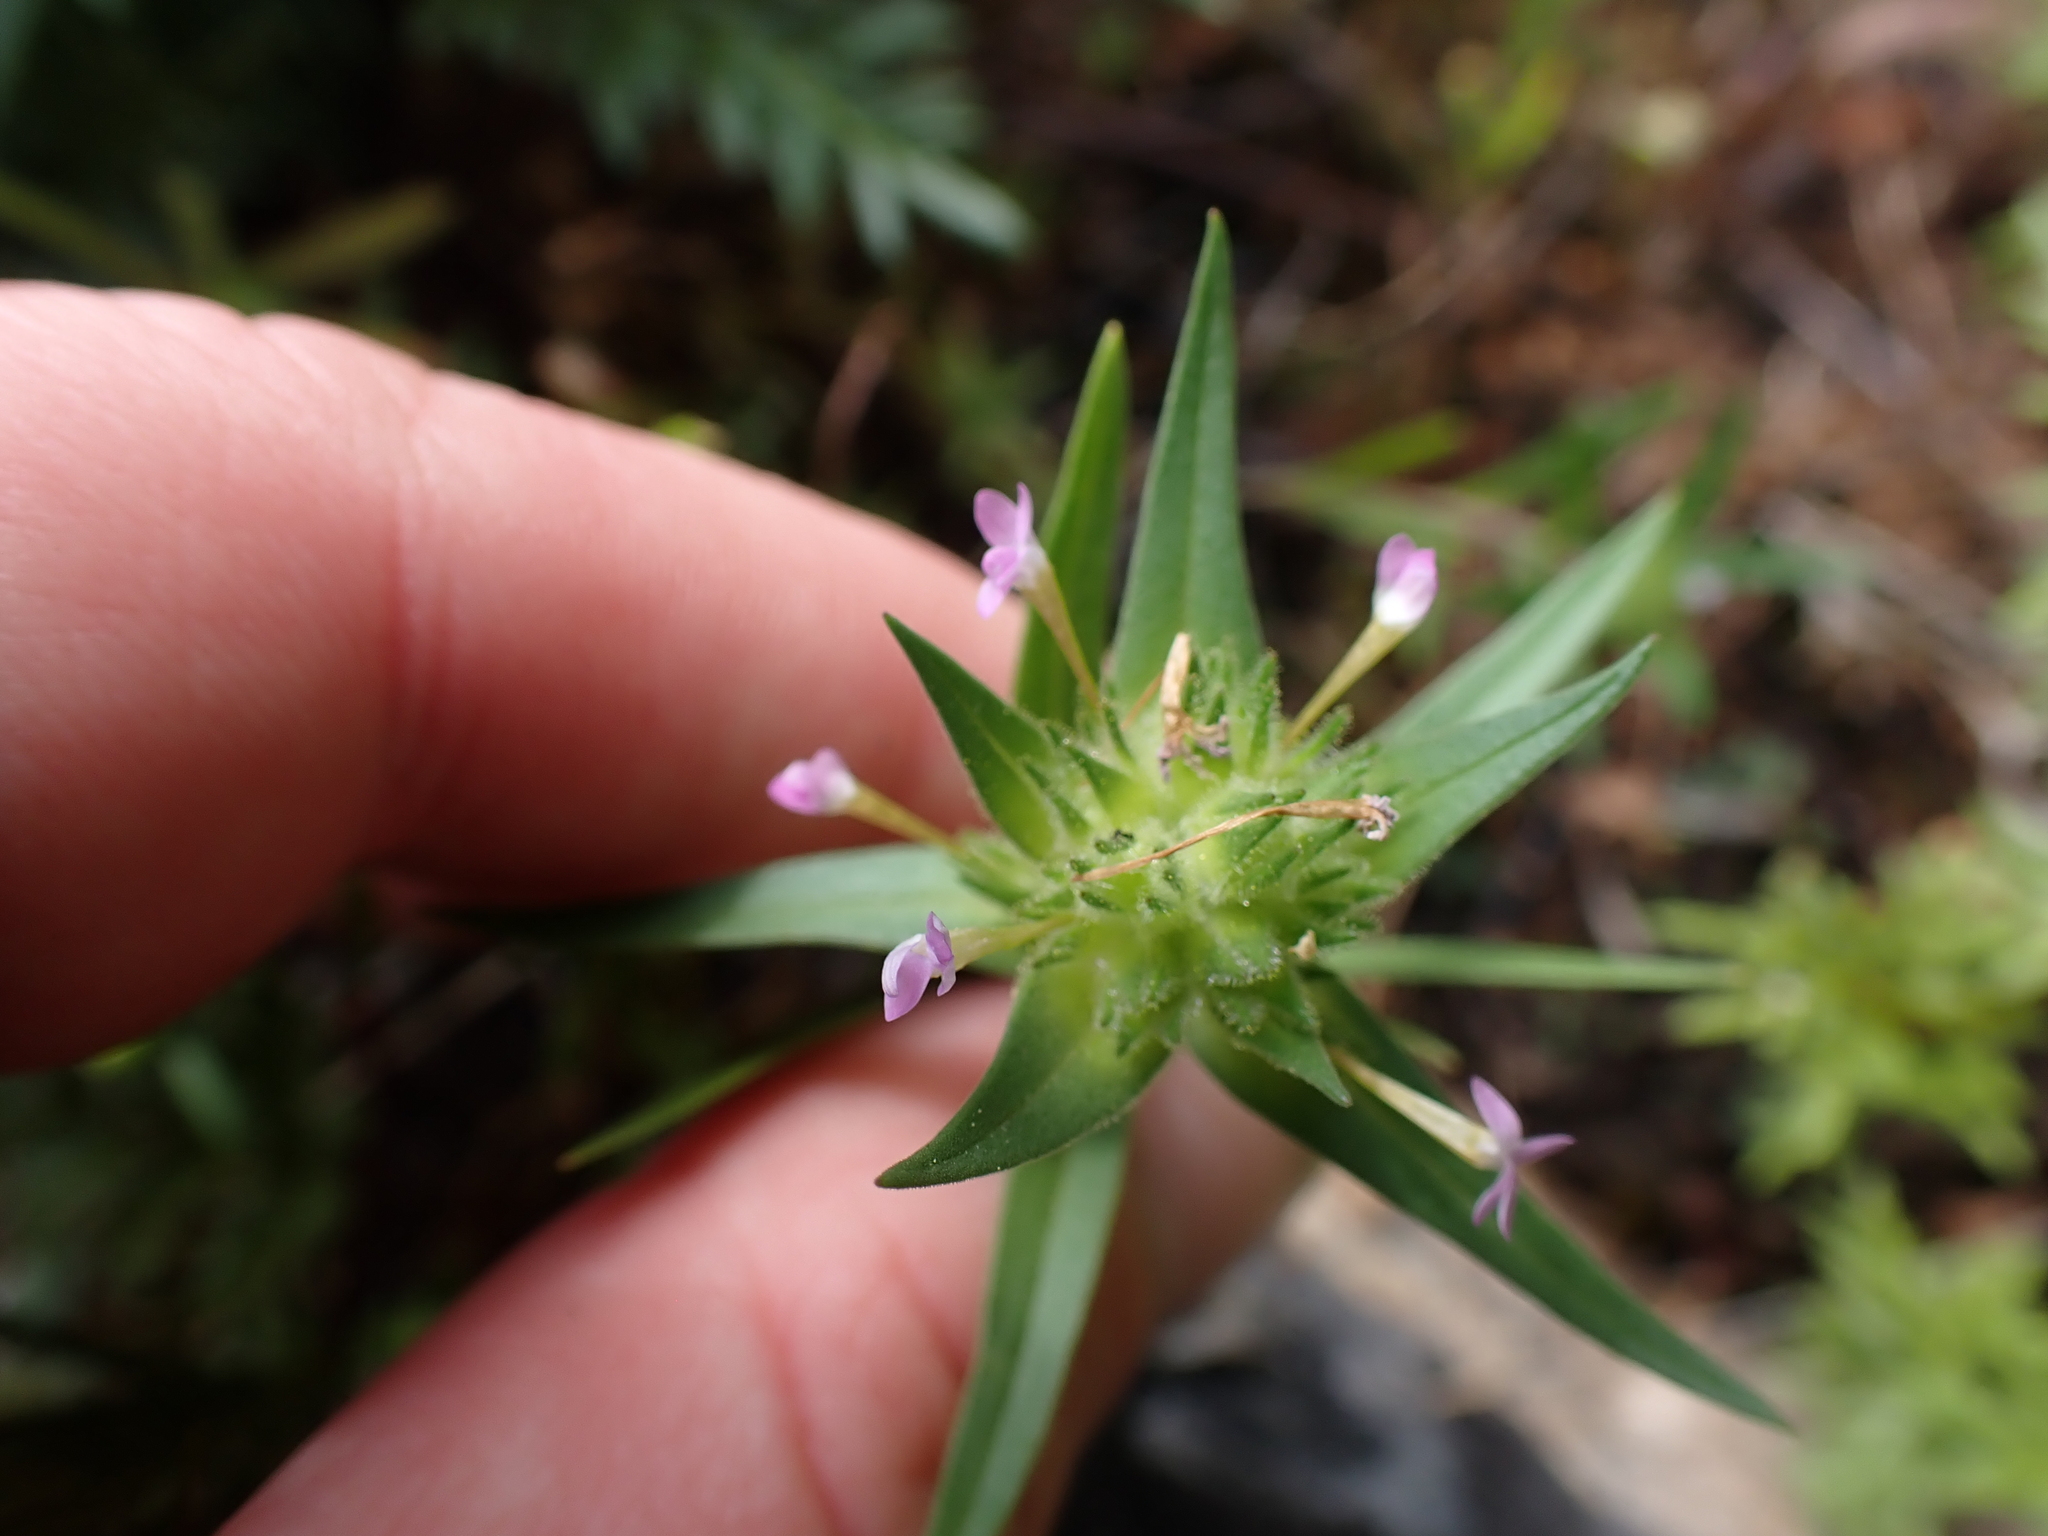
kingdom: Plantae
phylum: Tracheophyta
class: Magnoliopsida
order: Ericales
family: Polemoniaceae
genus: Collomia
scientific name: Collomia linearis
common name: Tiny trumpet
